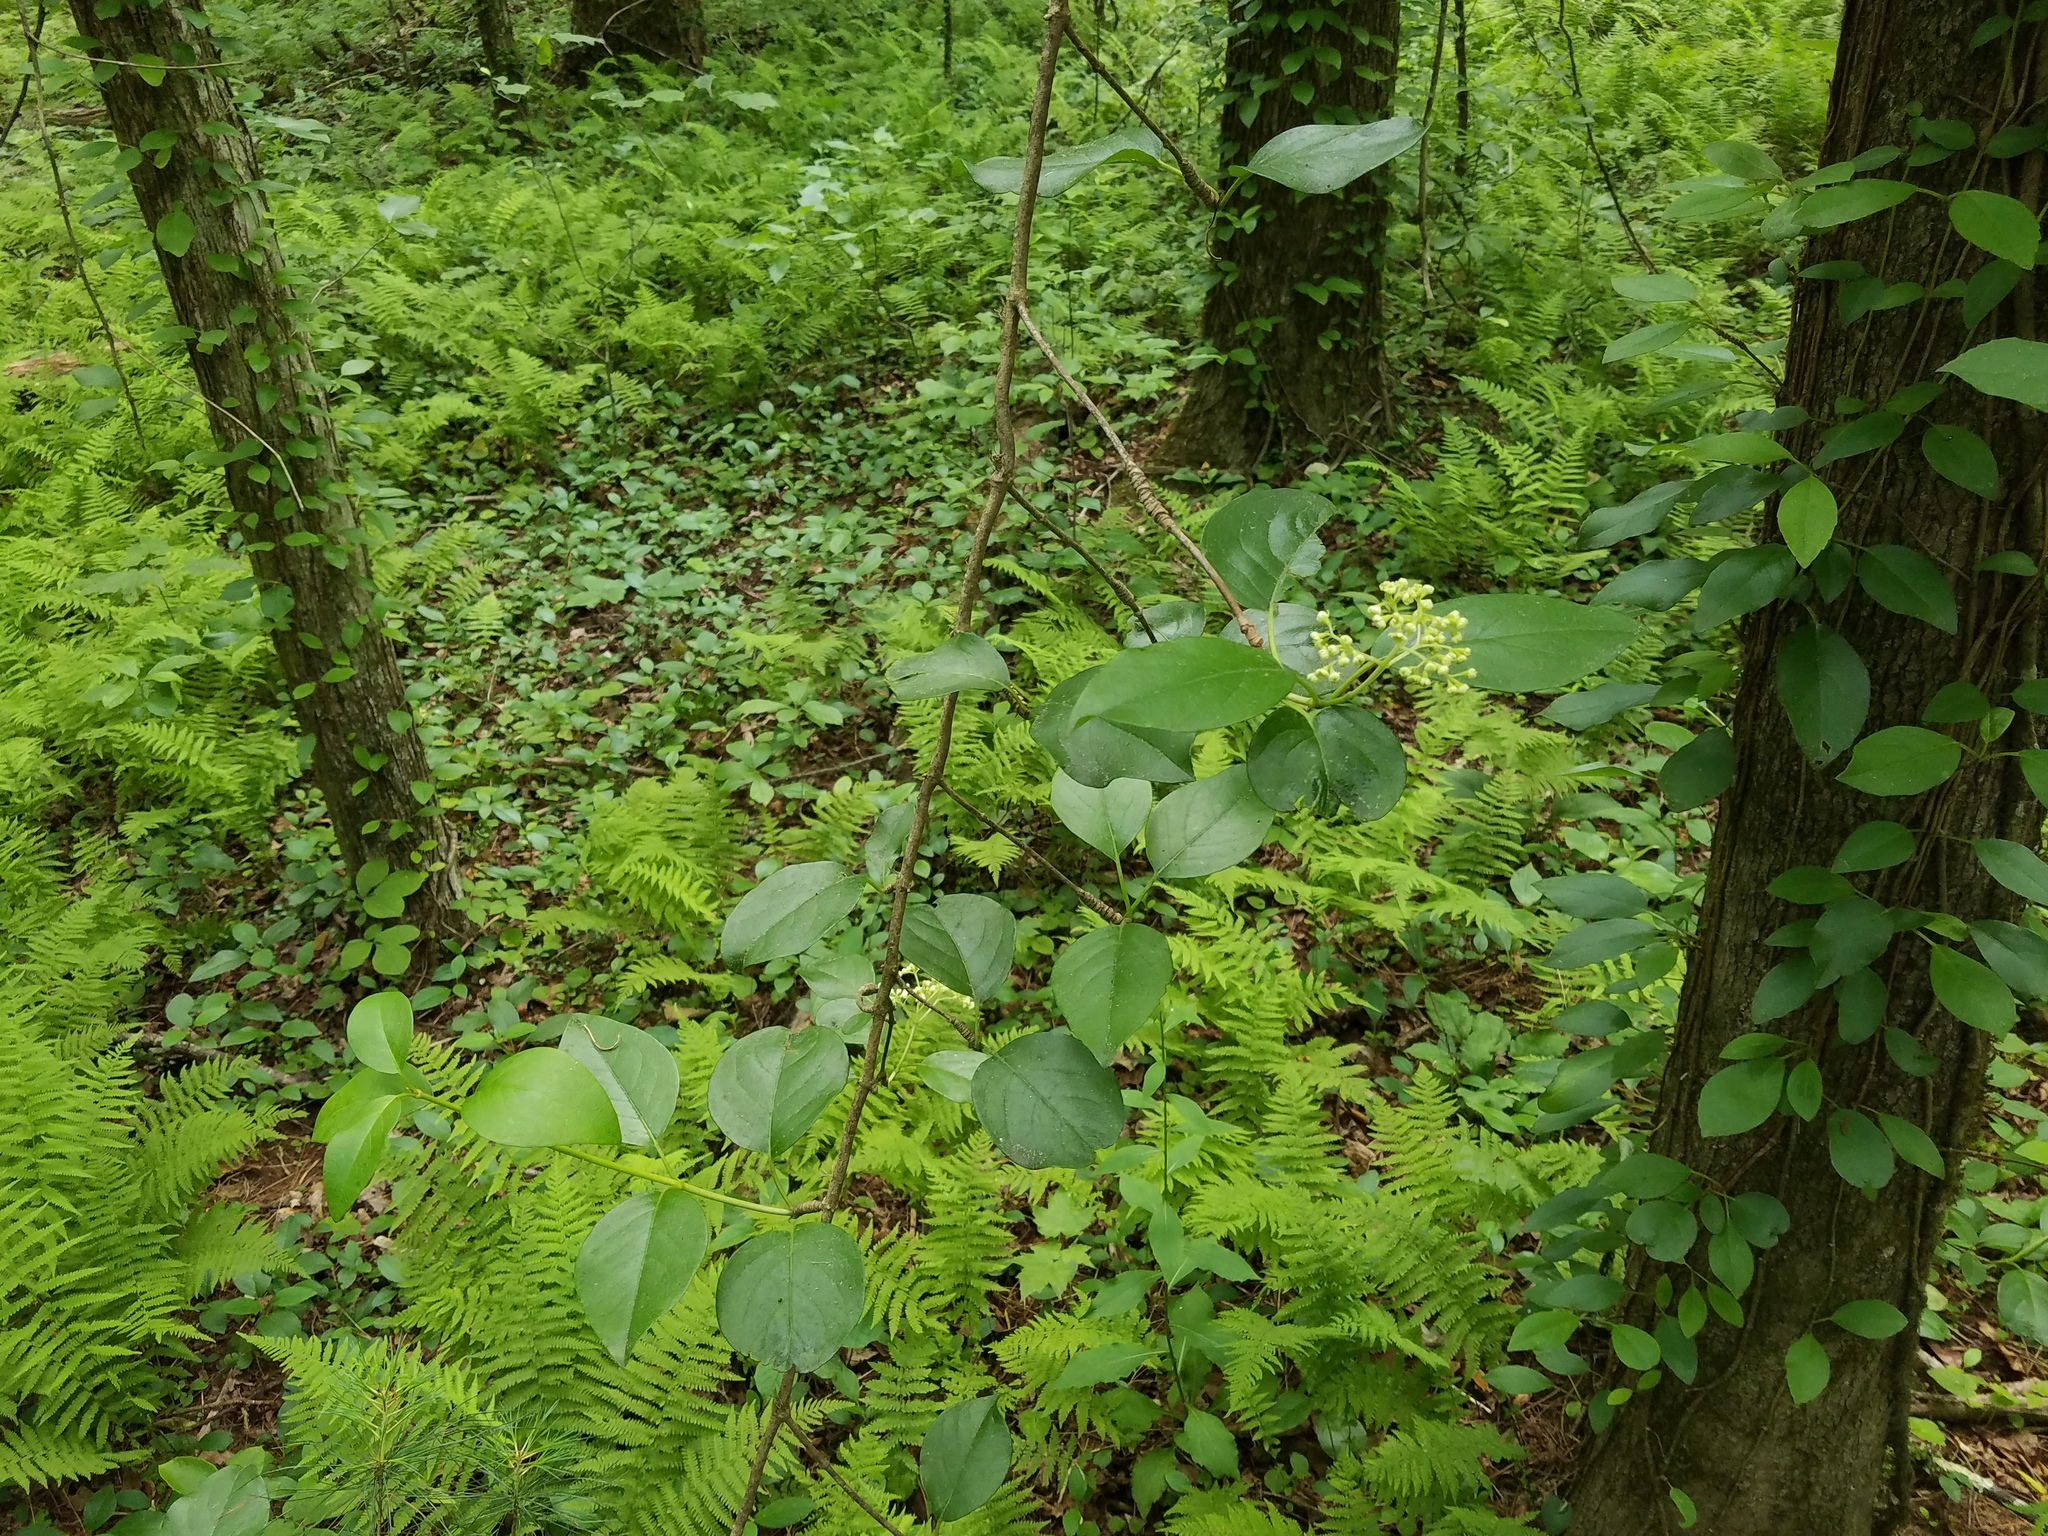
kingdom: Plantae
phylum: Tracheophyta
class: Magnoliopsida
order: Cornales
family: Hydrangeaceae
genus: Hydrangea
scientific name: Hydrangea barbara
